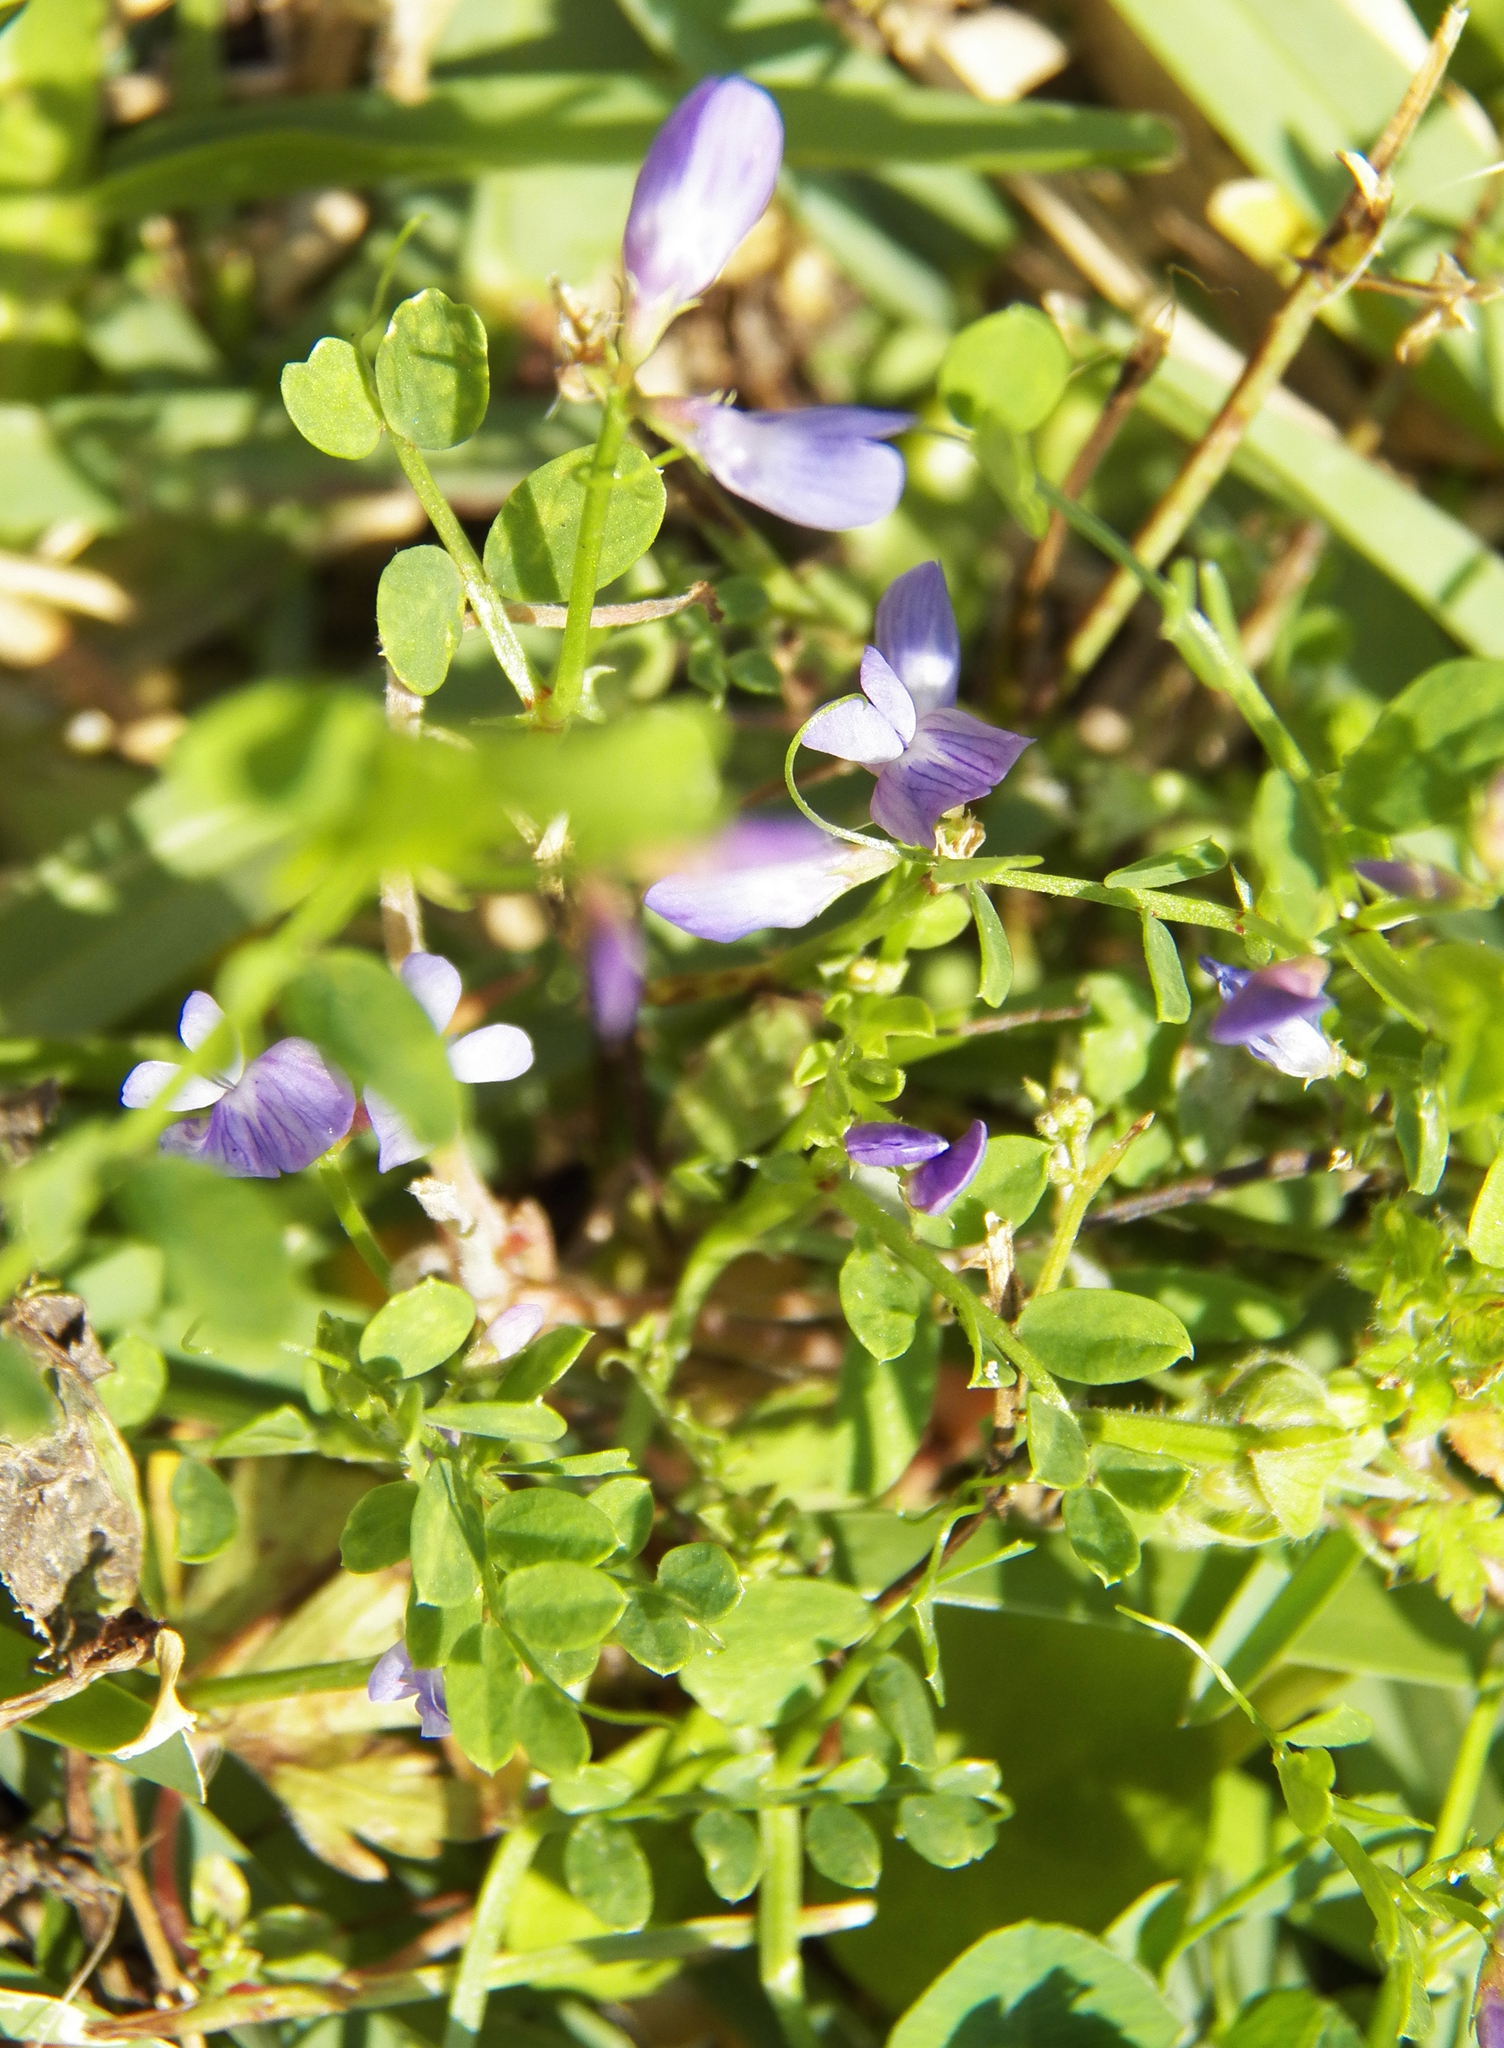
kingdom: Plantae
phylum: Tracheophyta
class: Magnoliopsida
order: Fabales
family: Fabaceae
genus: Vicia
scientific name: Vicia ludoviciana
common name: Louisiana vetch
